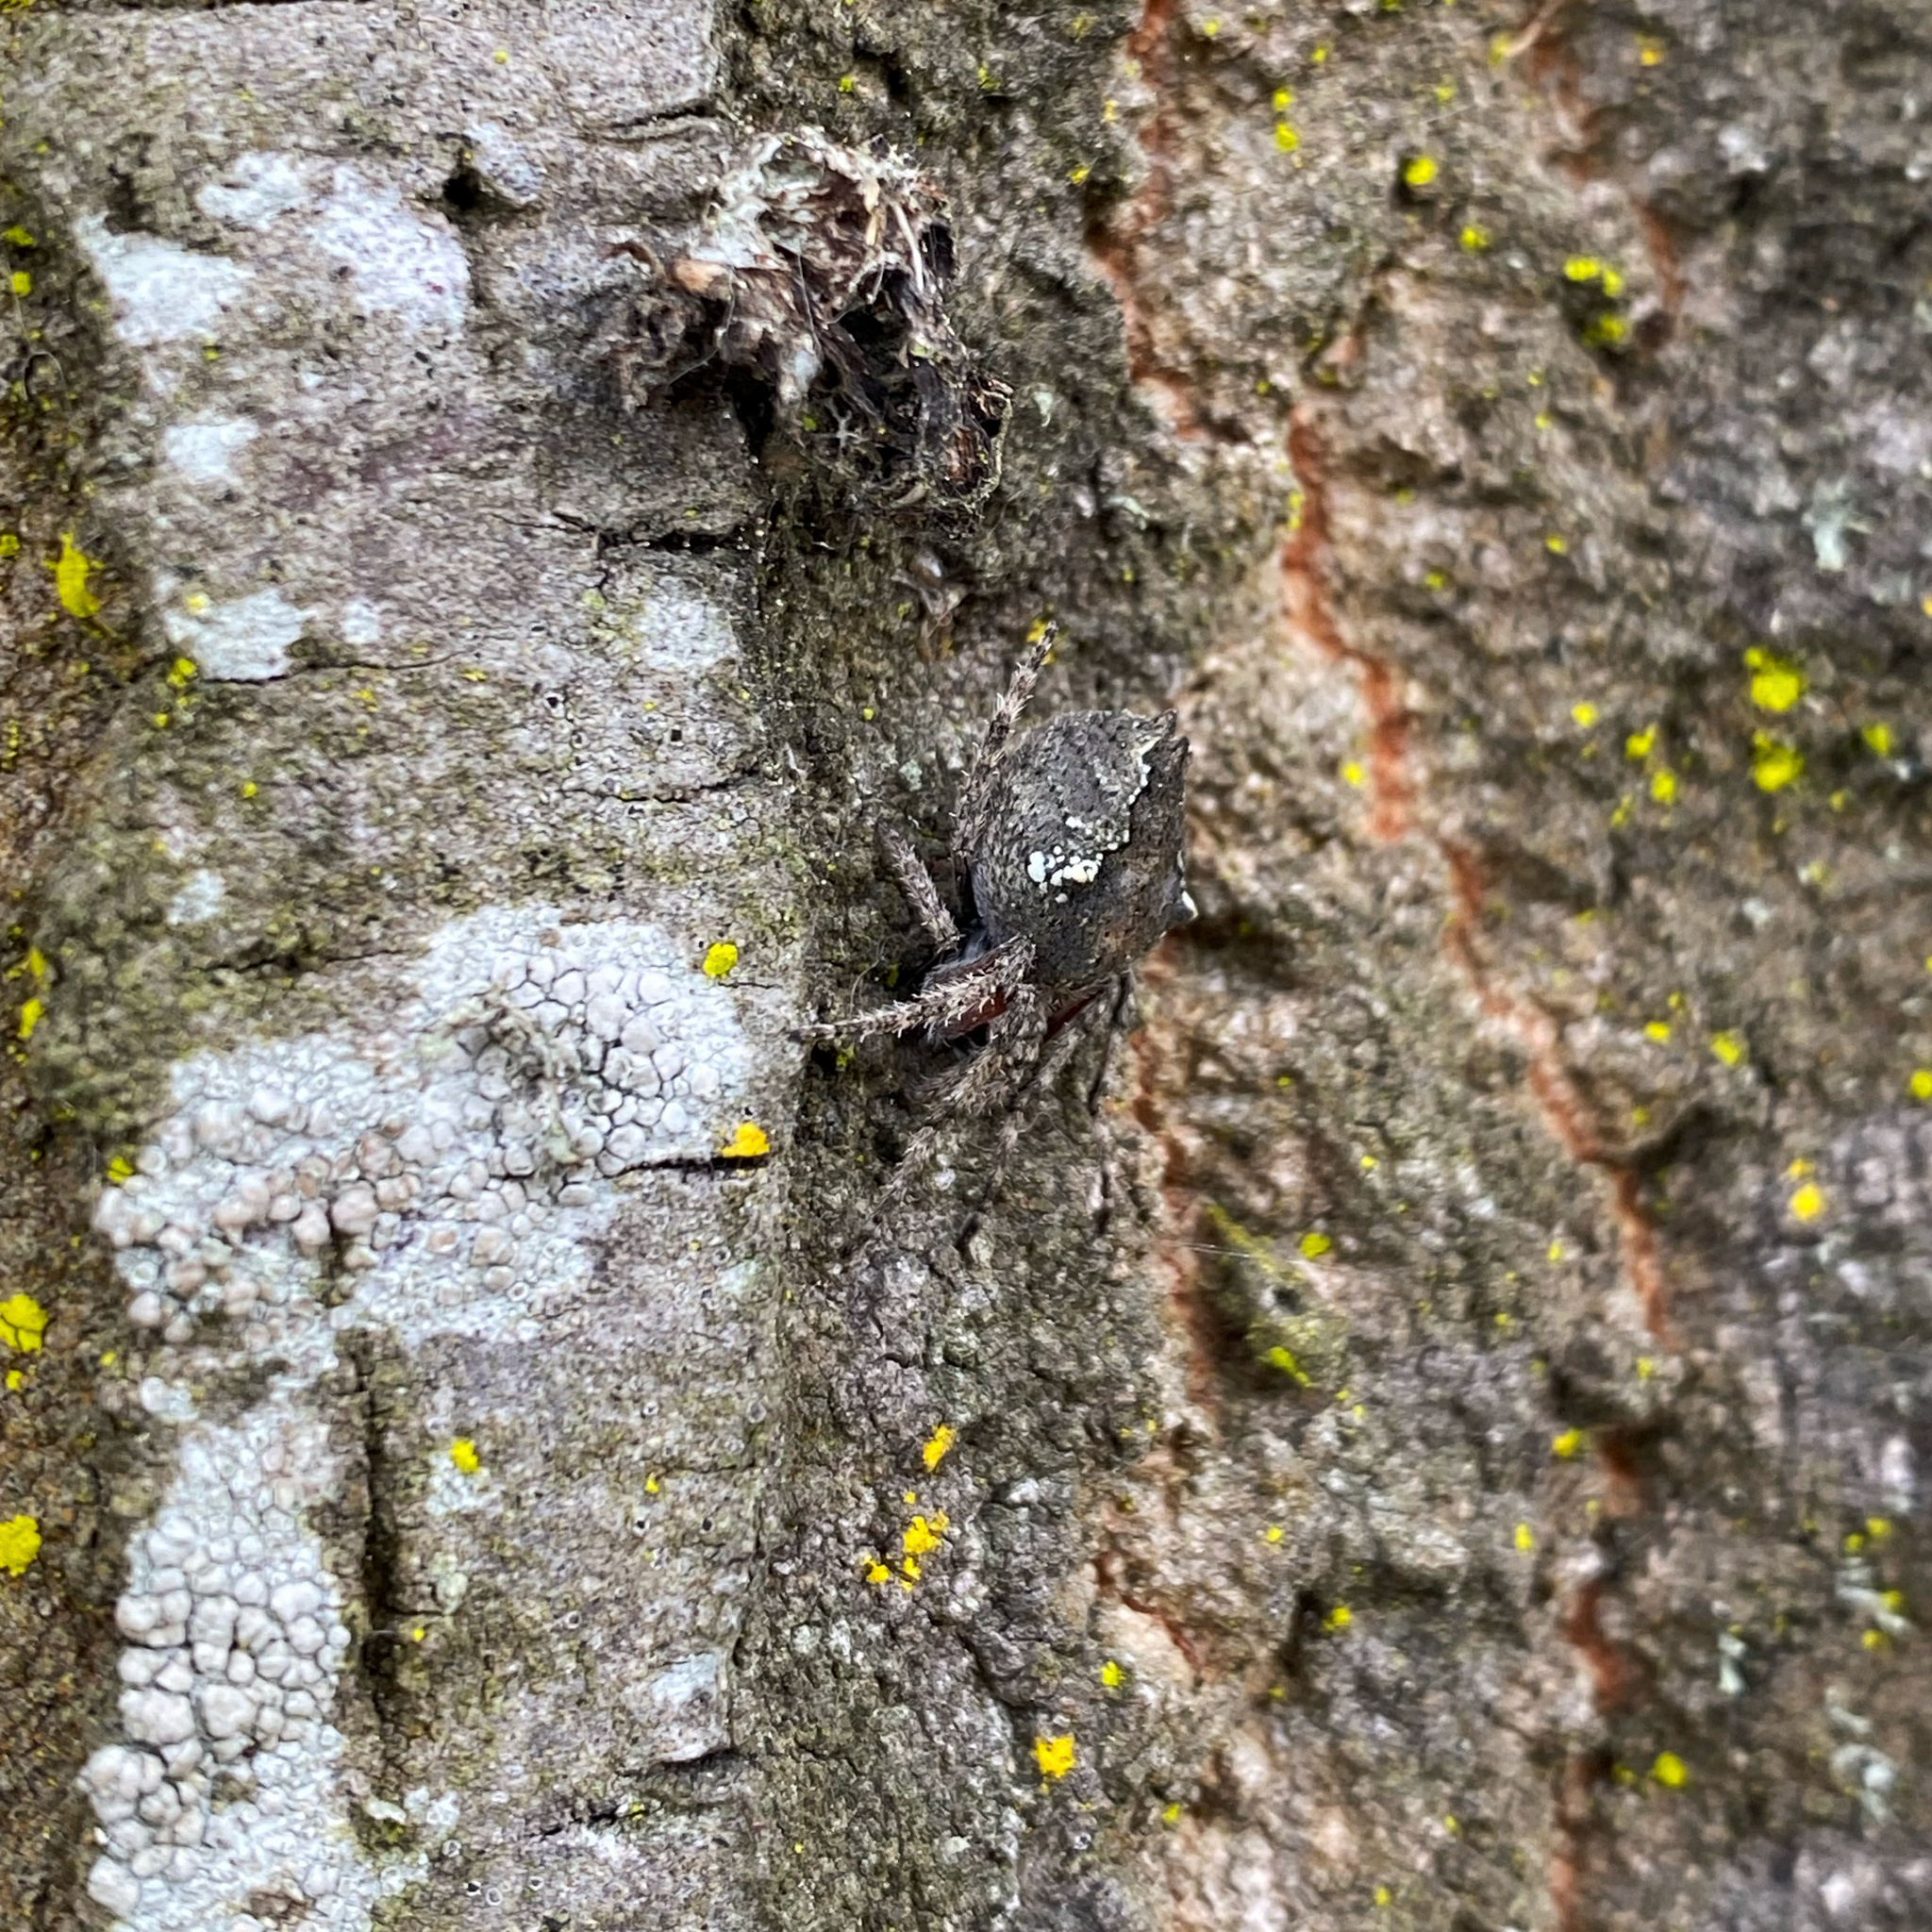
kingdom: Animalia
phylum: Arthropoda
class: Arachnida
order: Araneae
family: Araneidae
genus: Eriophora
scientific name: Eriophora pustulosa
